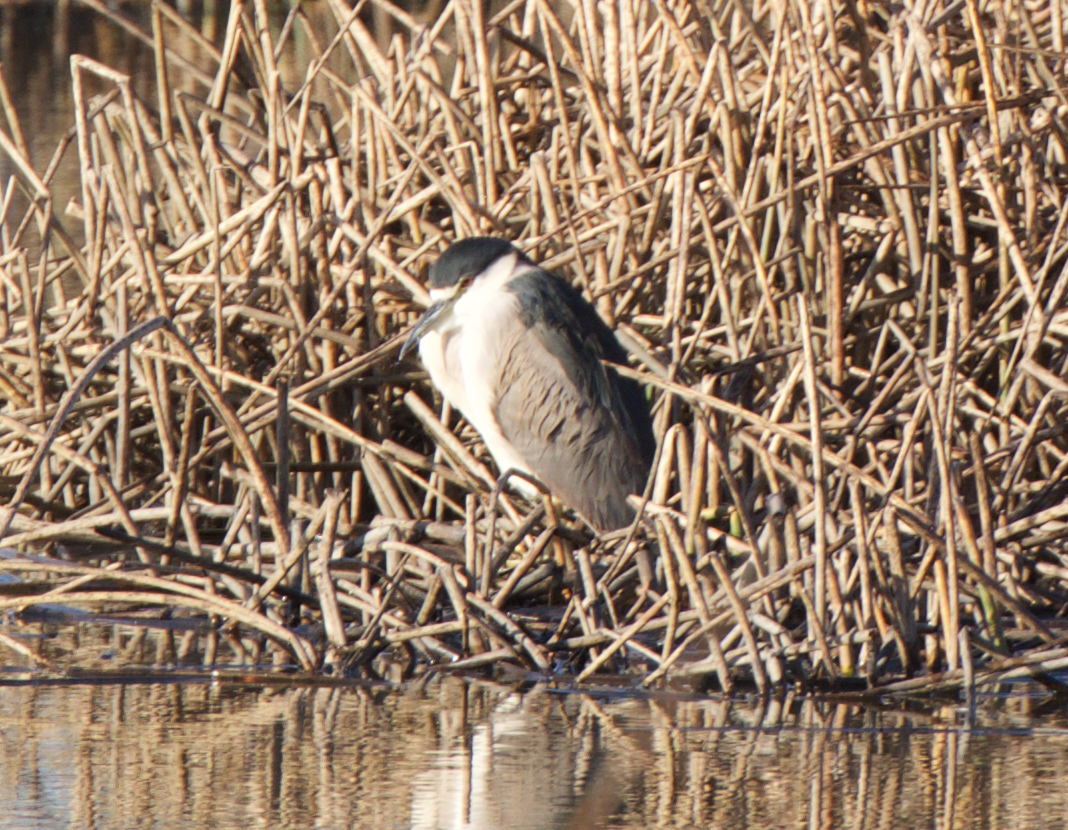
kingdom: Animalia
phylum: Chordata
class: Aves
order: Pelecaniformes
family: Ardeidae
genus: Nycticorax
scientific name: Nycticorax nycticorax
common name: Black-crowned night heron
